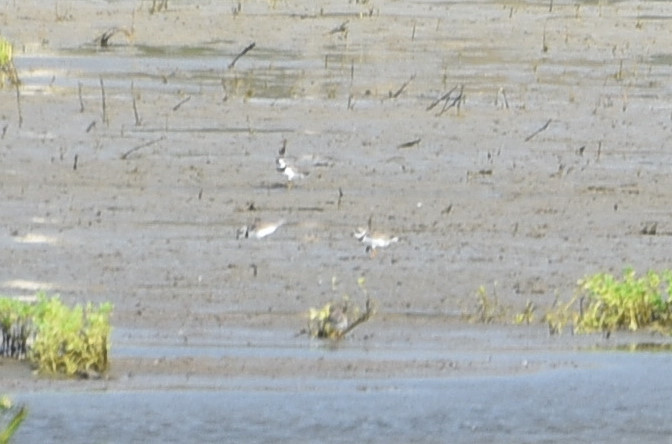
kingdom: Animalia
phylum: Chordata
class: Aves
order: Charadriiformes
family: Charadriidae
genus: Charadrius
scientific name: Charadrius melodus
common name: Piping plover
